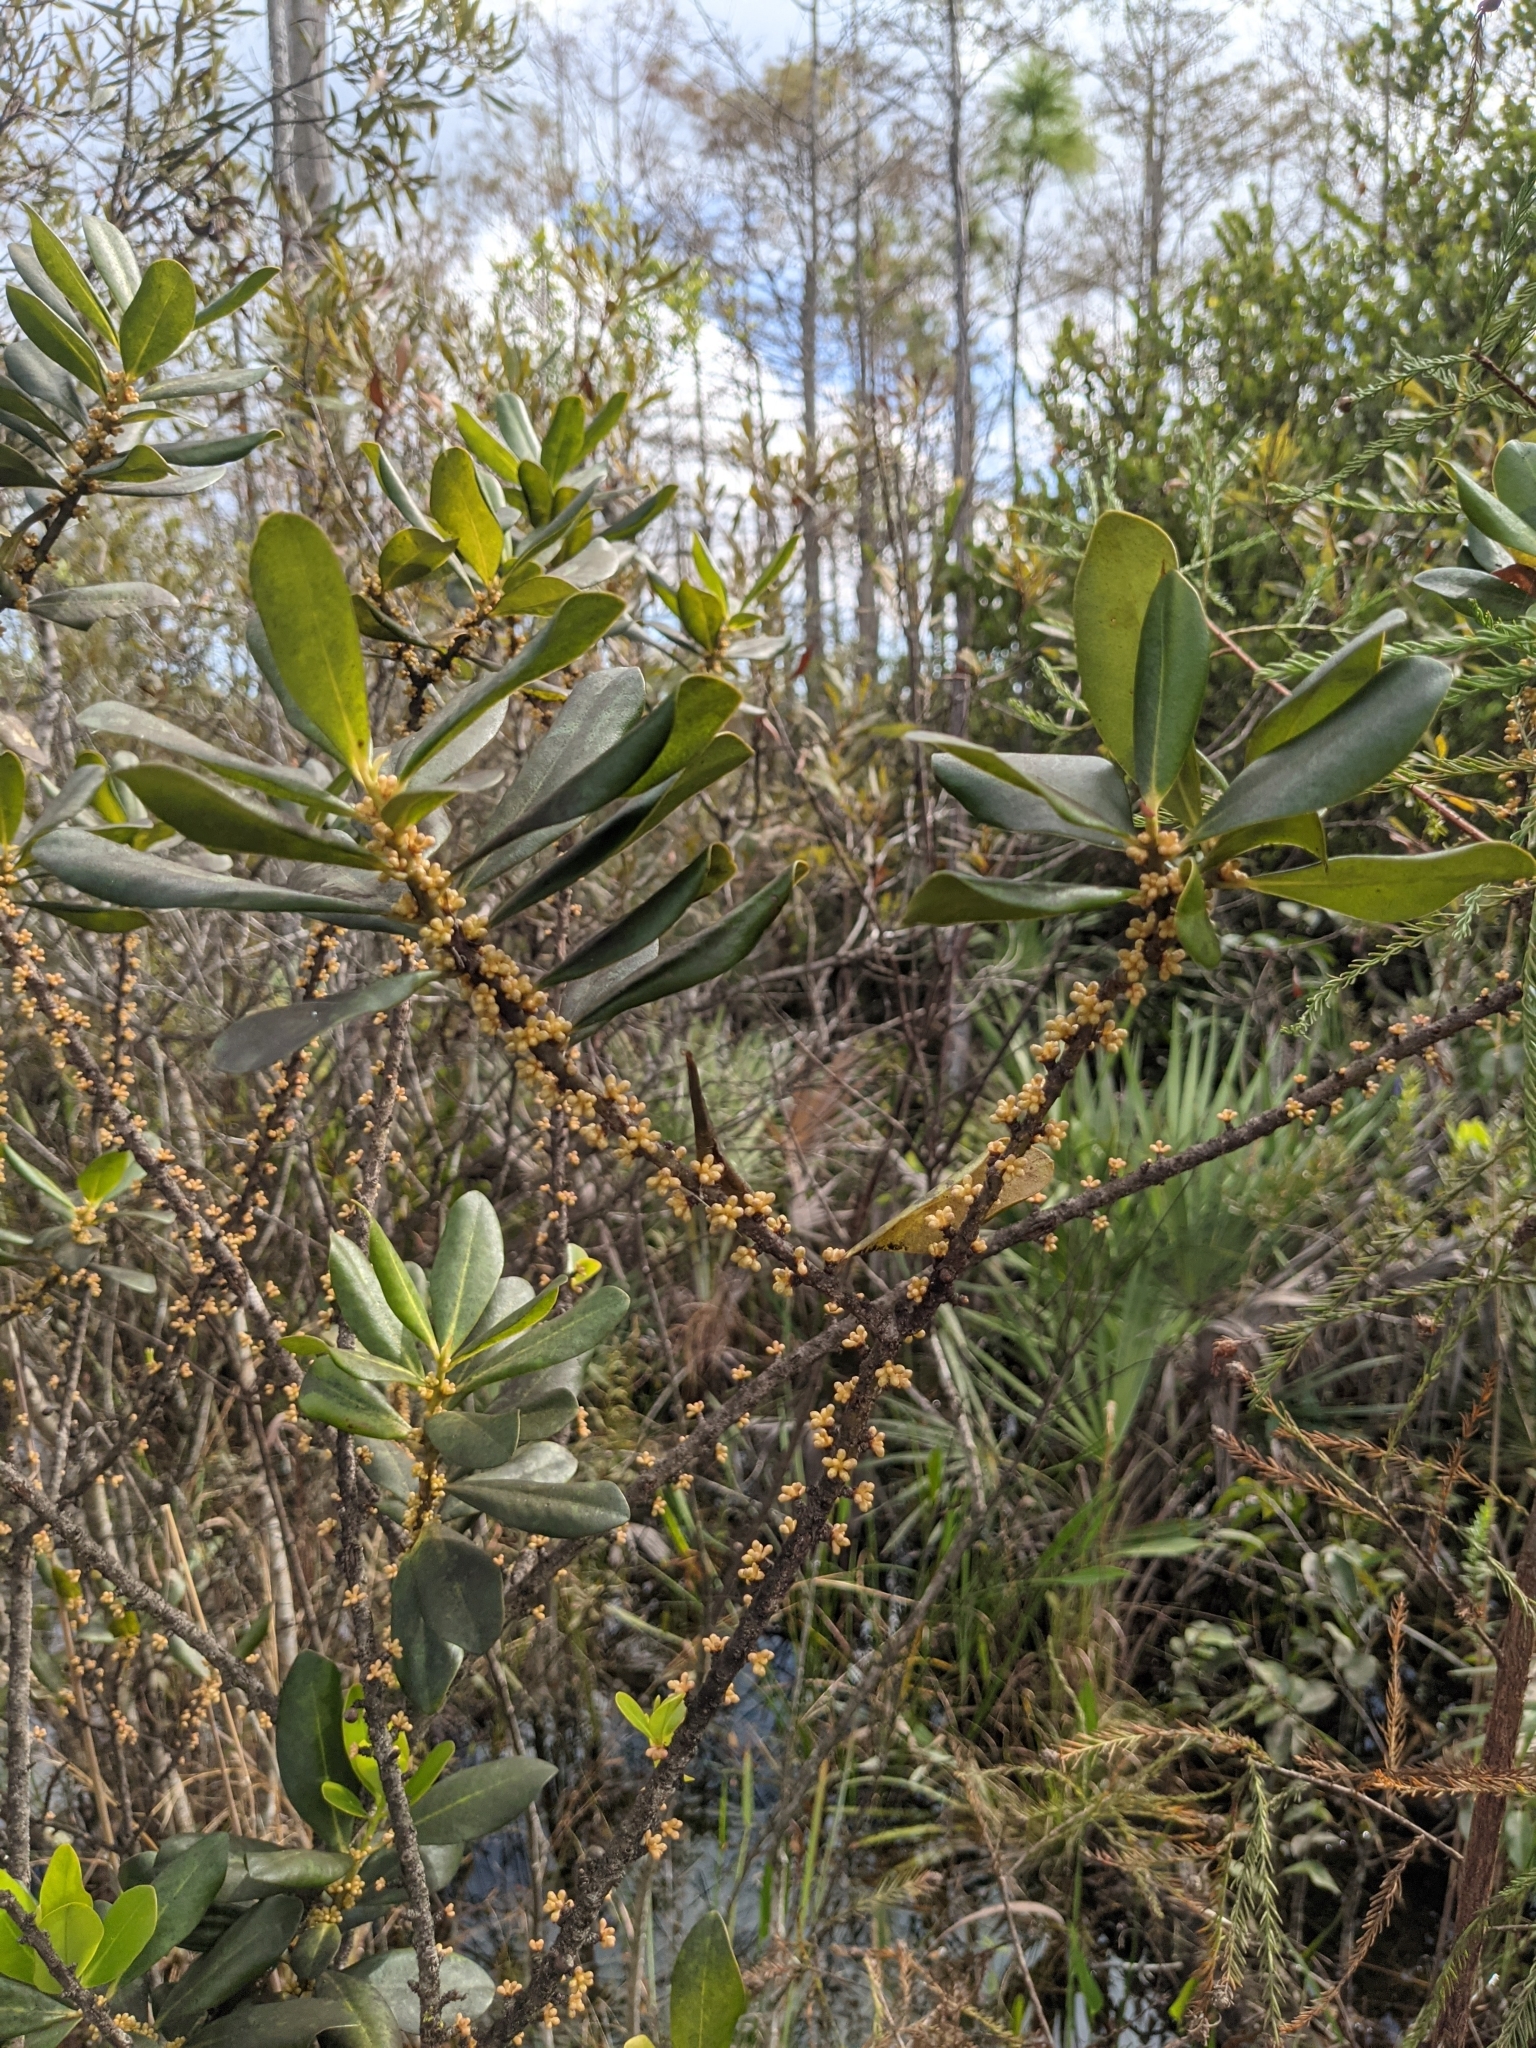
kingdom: Plantae
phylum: Tracheophyta
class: Magnoliopsida
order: Ericales
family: Primulaceae
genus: Myrsine
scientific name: Myrsine floridana
